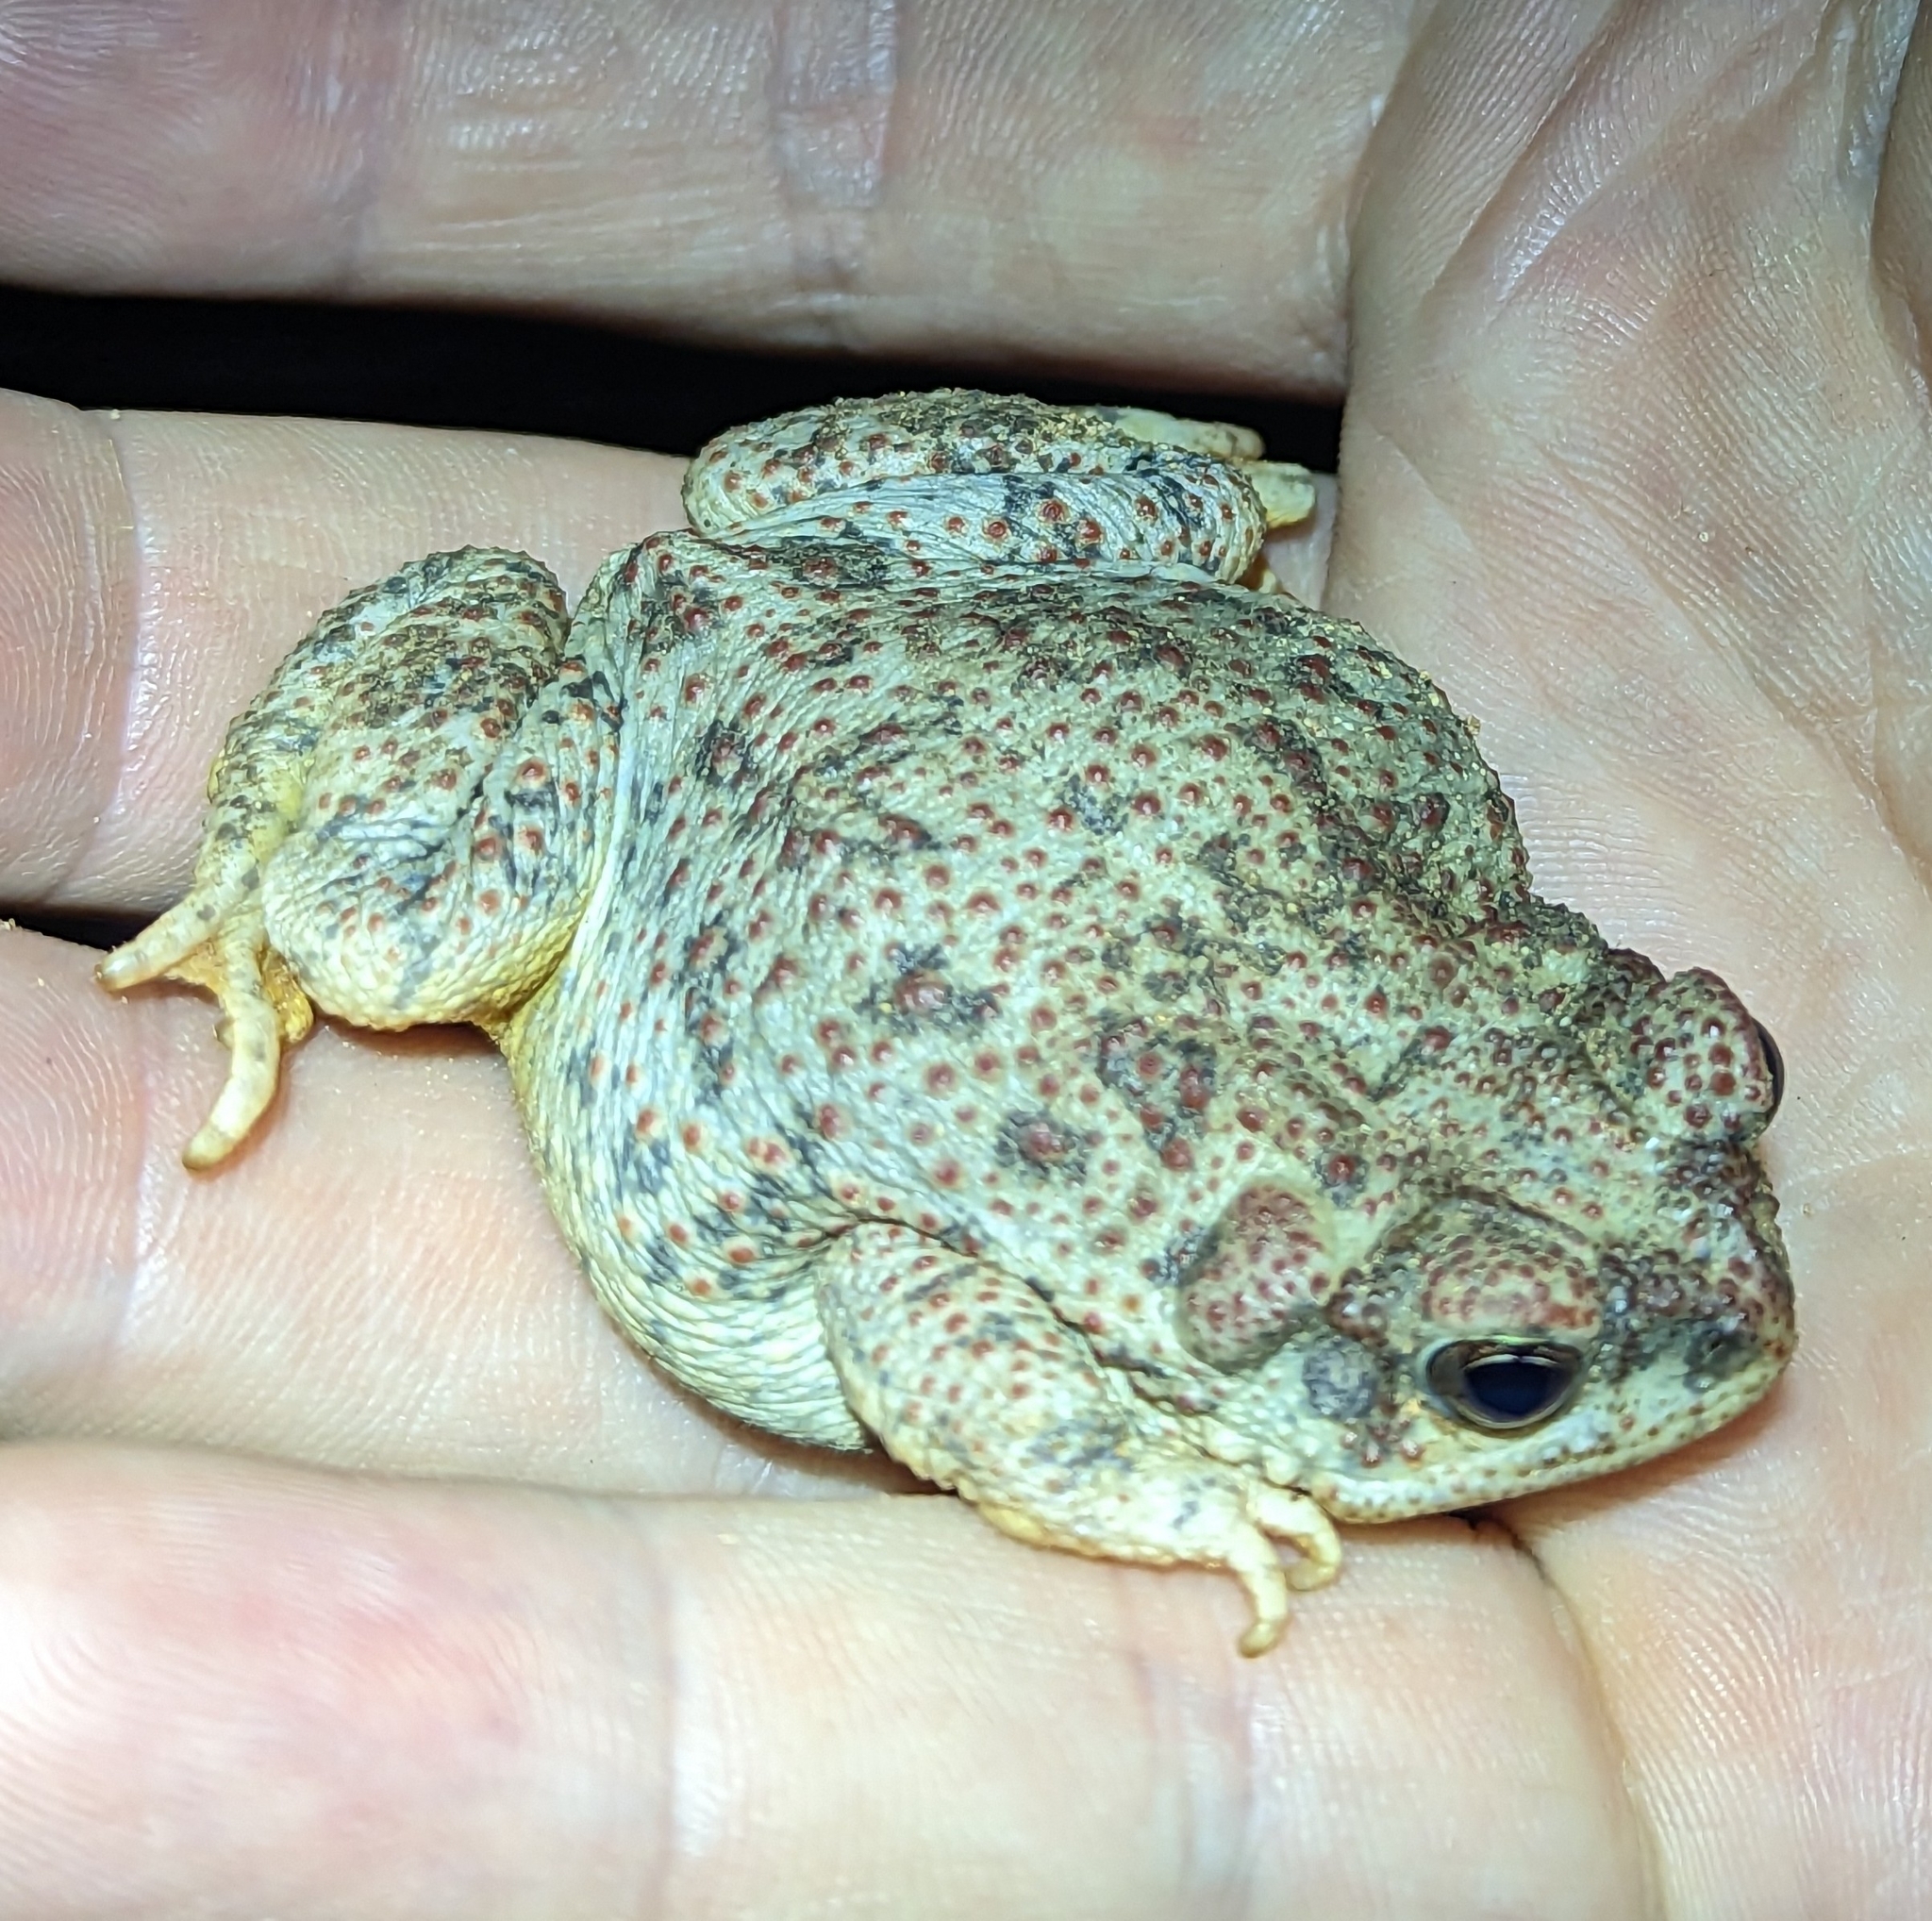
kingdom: Animalia
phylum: Chordata
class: Amphibia
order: Anura
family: Bufonidae
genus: Anaxyrus
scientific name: Anaxyrus punctatus
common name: Red-spotted toad
